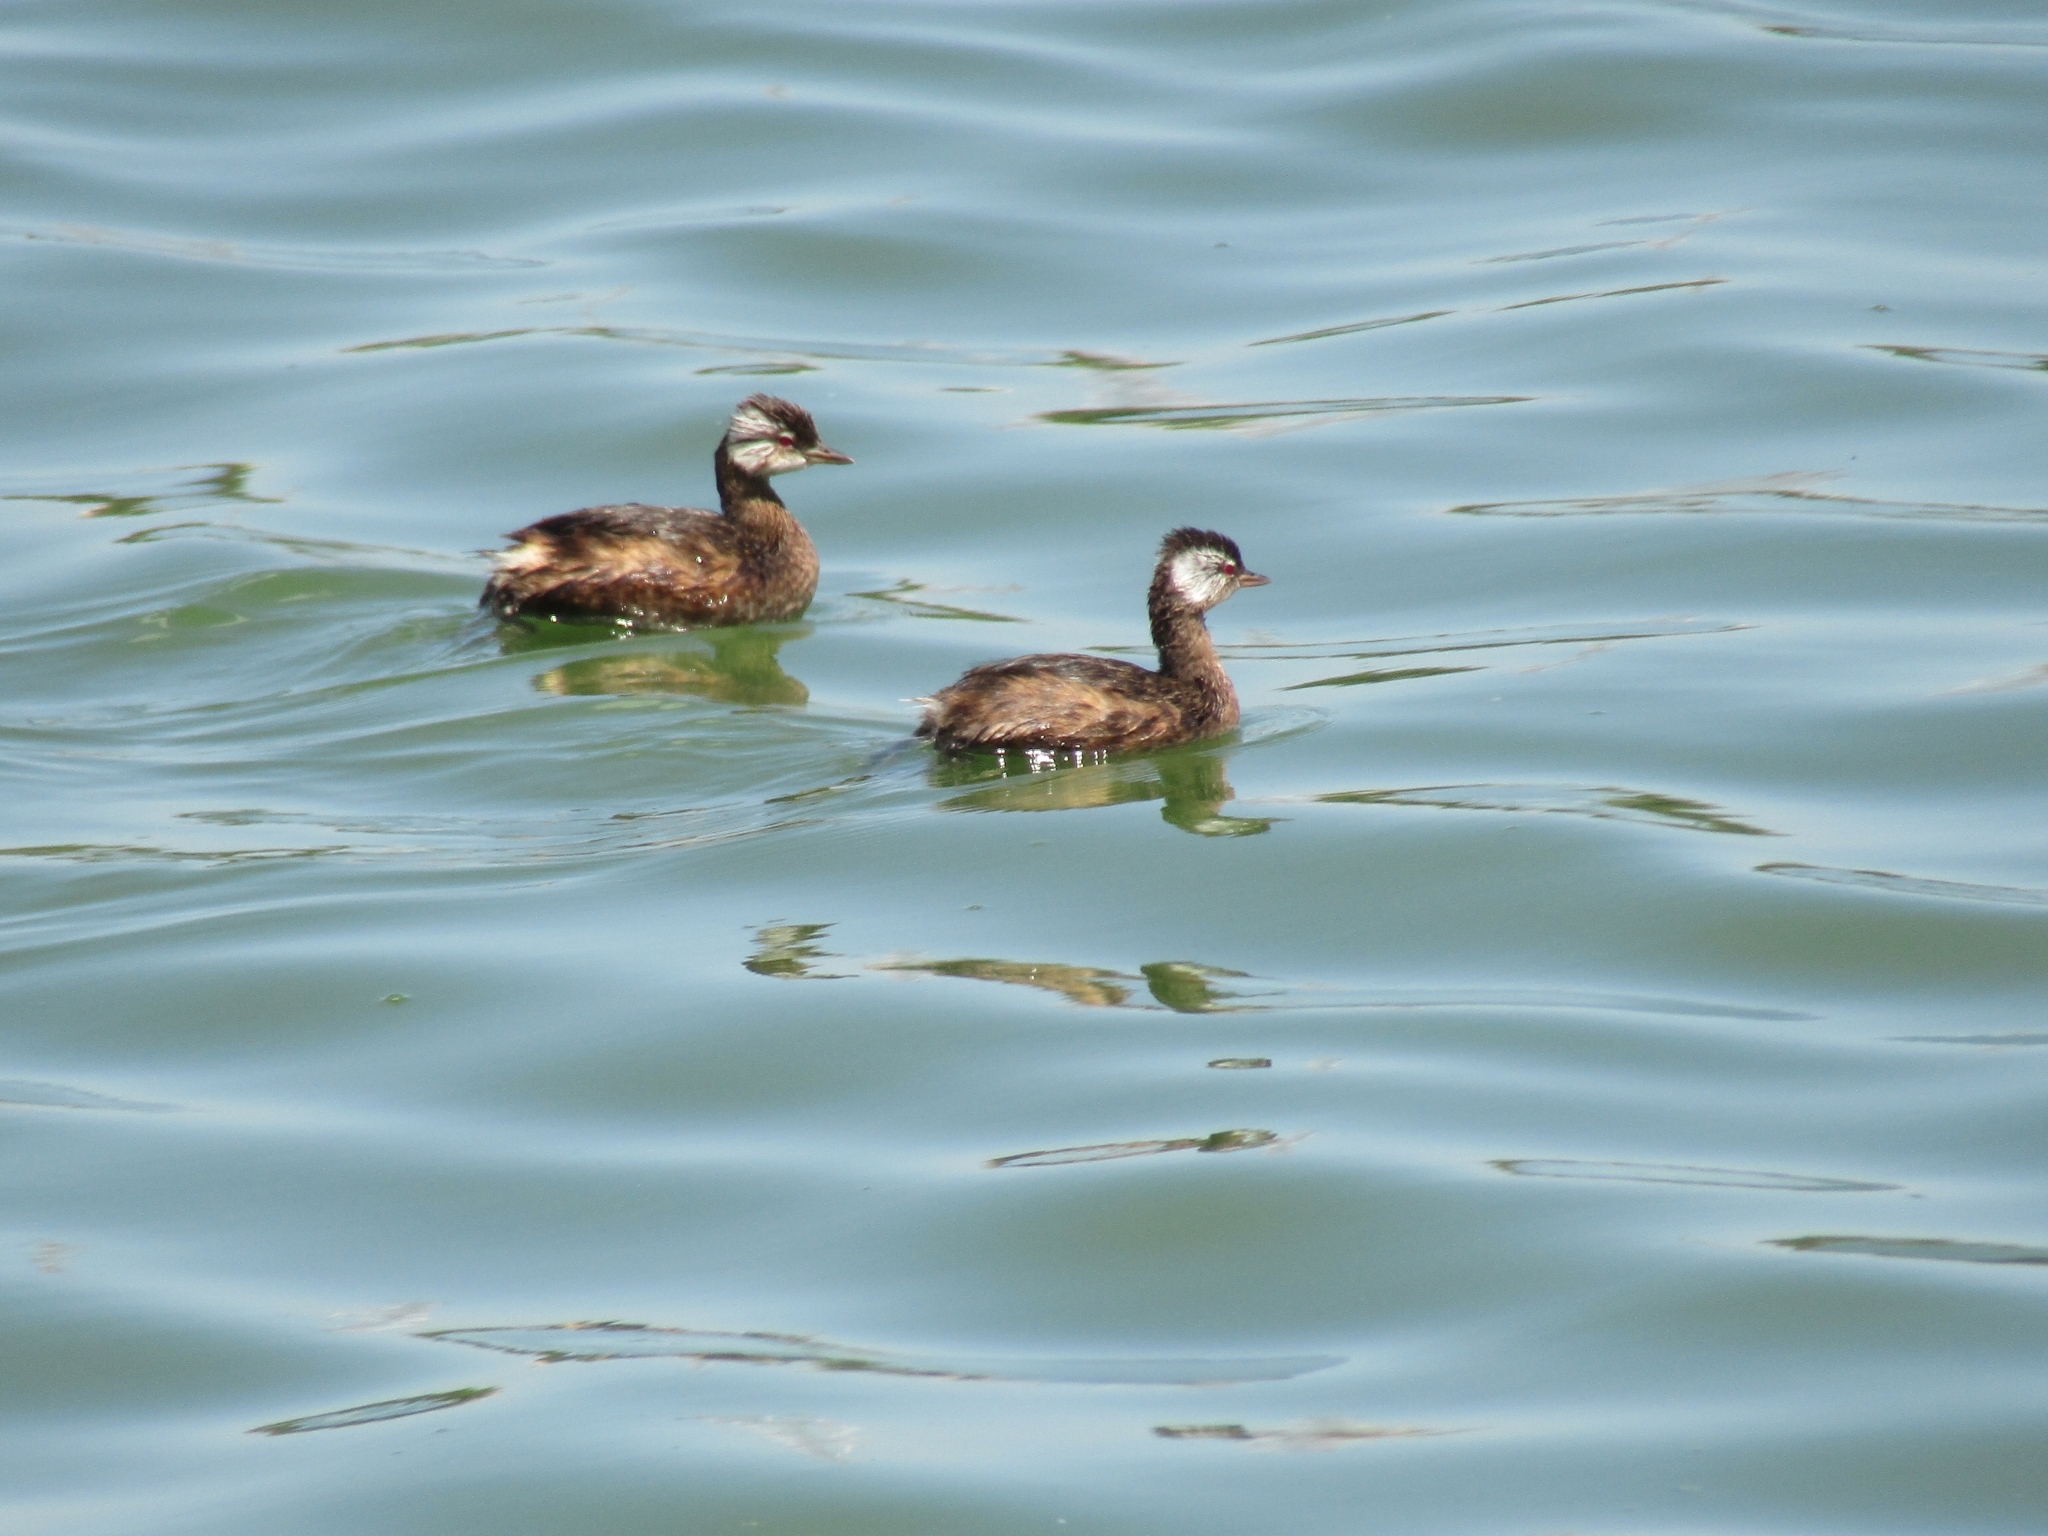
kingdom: Animalia
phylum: Chordata
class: Aves
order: Podicipediformes
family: Podicipedidae
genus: Rollandia
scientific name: Rollandia rolland
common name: White-tufted grebe
